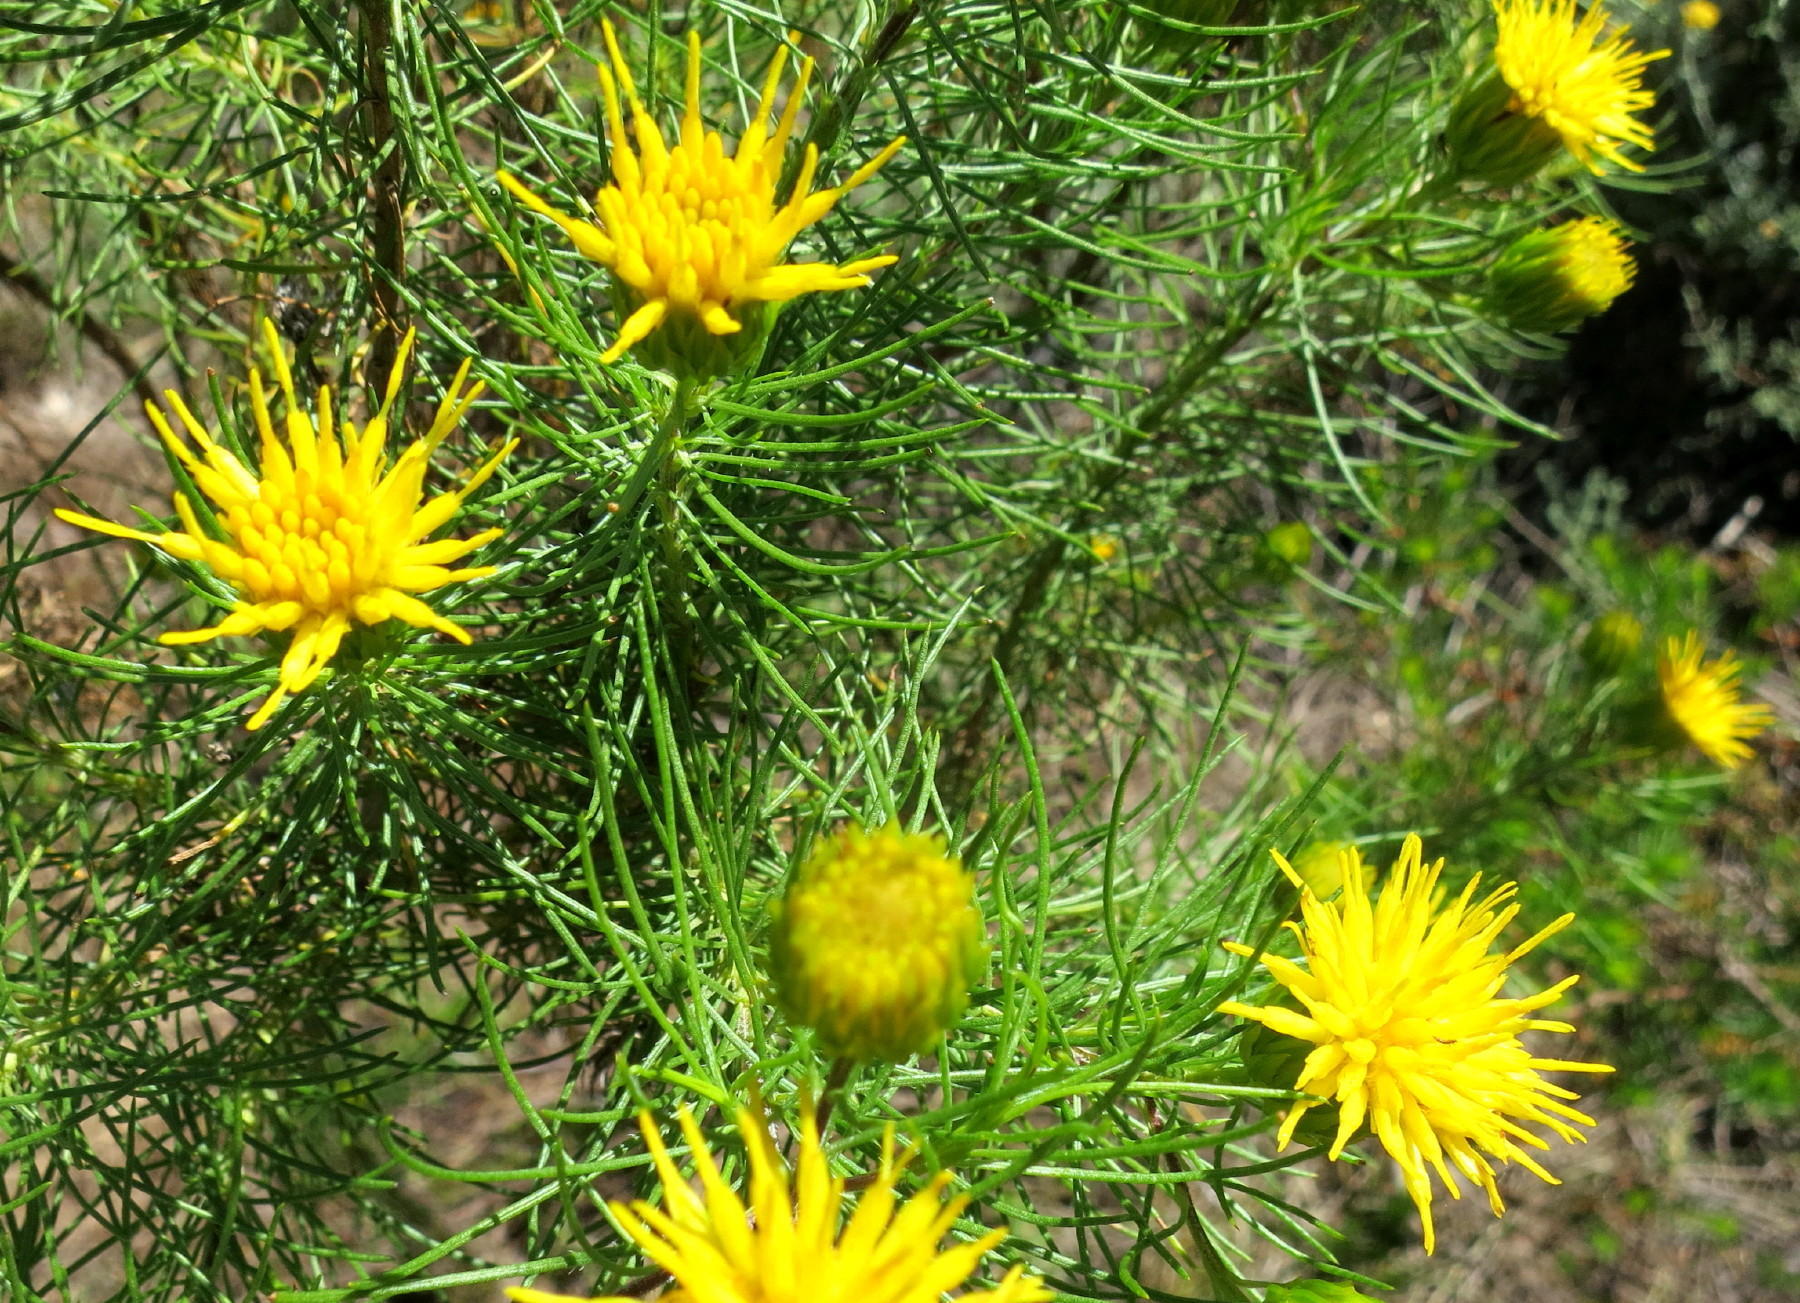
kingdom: Plantae
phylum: Tracheophyta
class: Magnoliopsida
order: Asterales
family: Asteraceae
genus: Pteronia
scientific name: Pteronia camphorata
